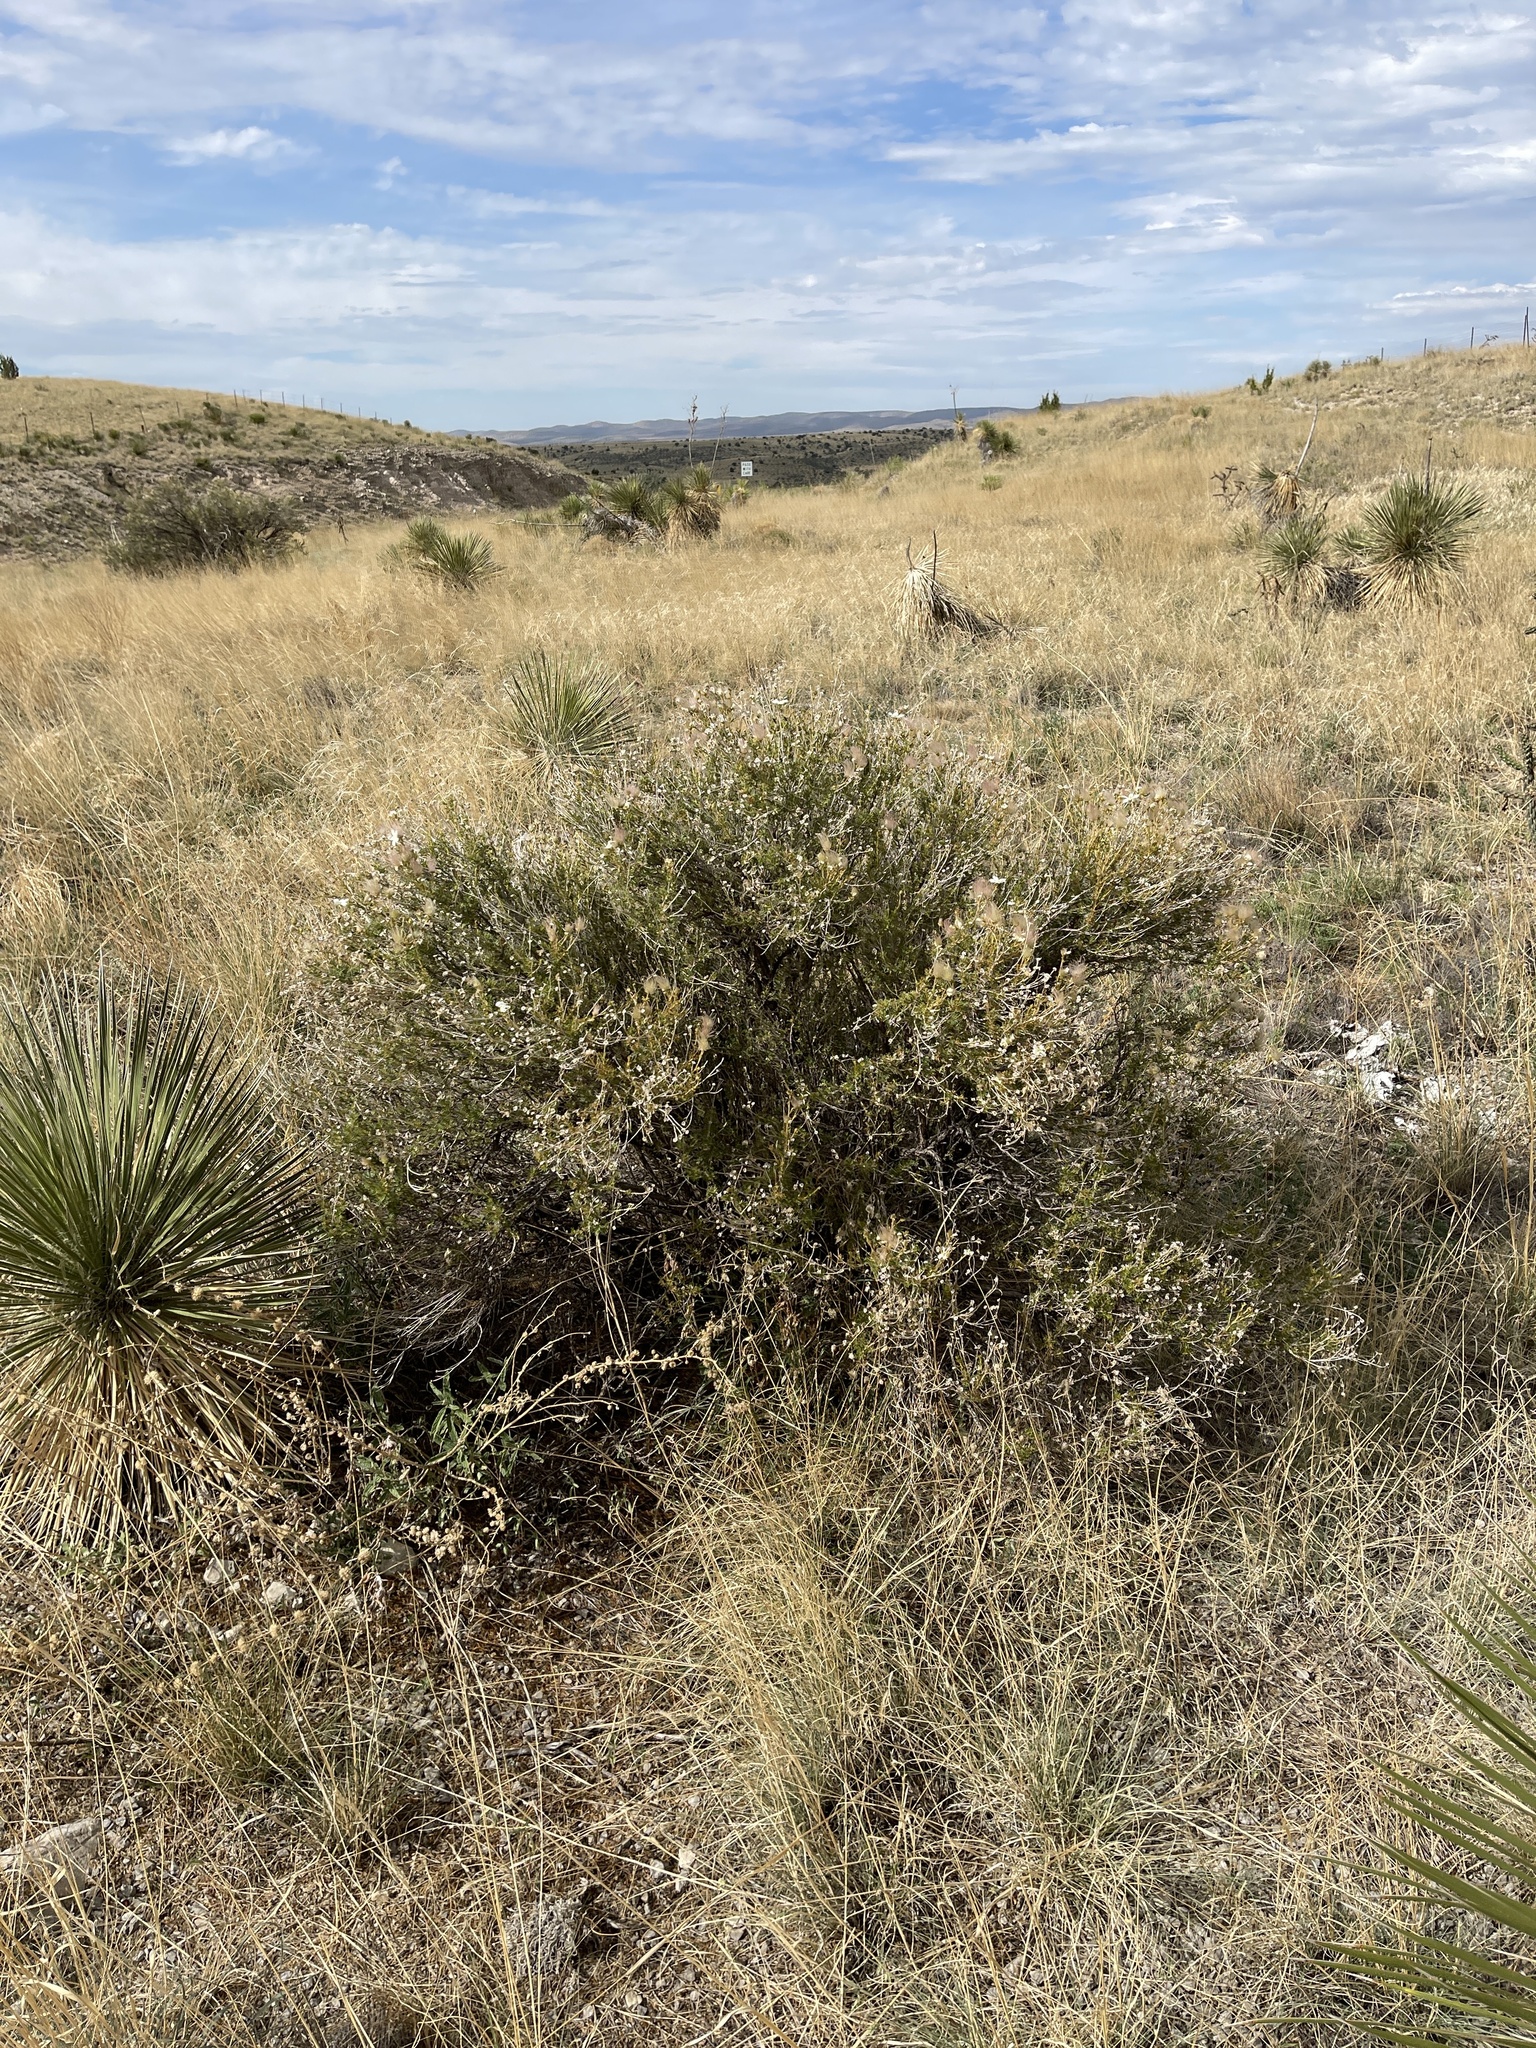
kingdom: Plantae
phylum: Tracheophyta
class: Magnoliopsida
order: Rosales
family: Rosaceae
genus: Fallugia
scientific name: Fallugia paradoxa
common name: Apache-plume
